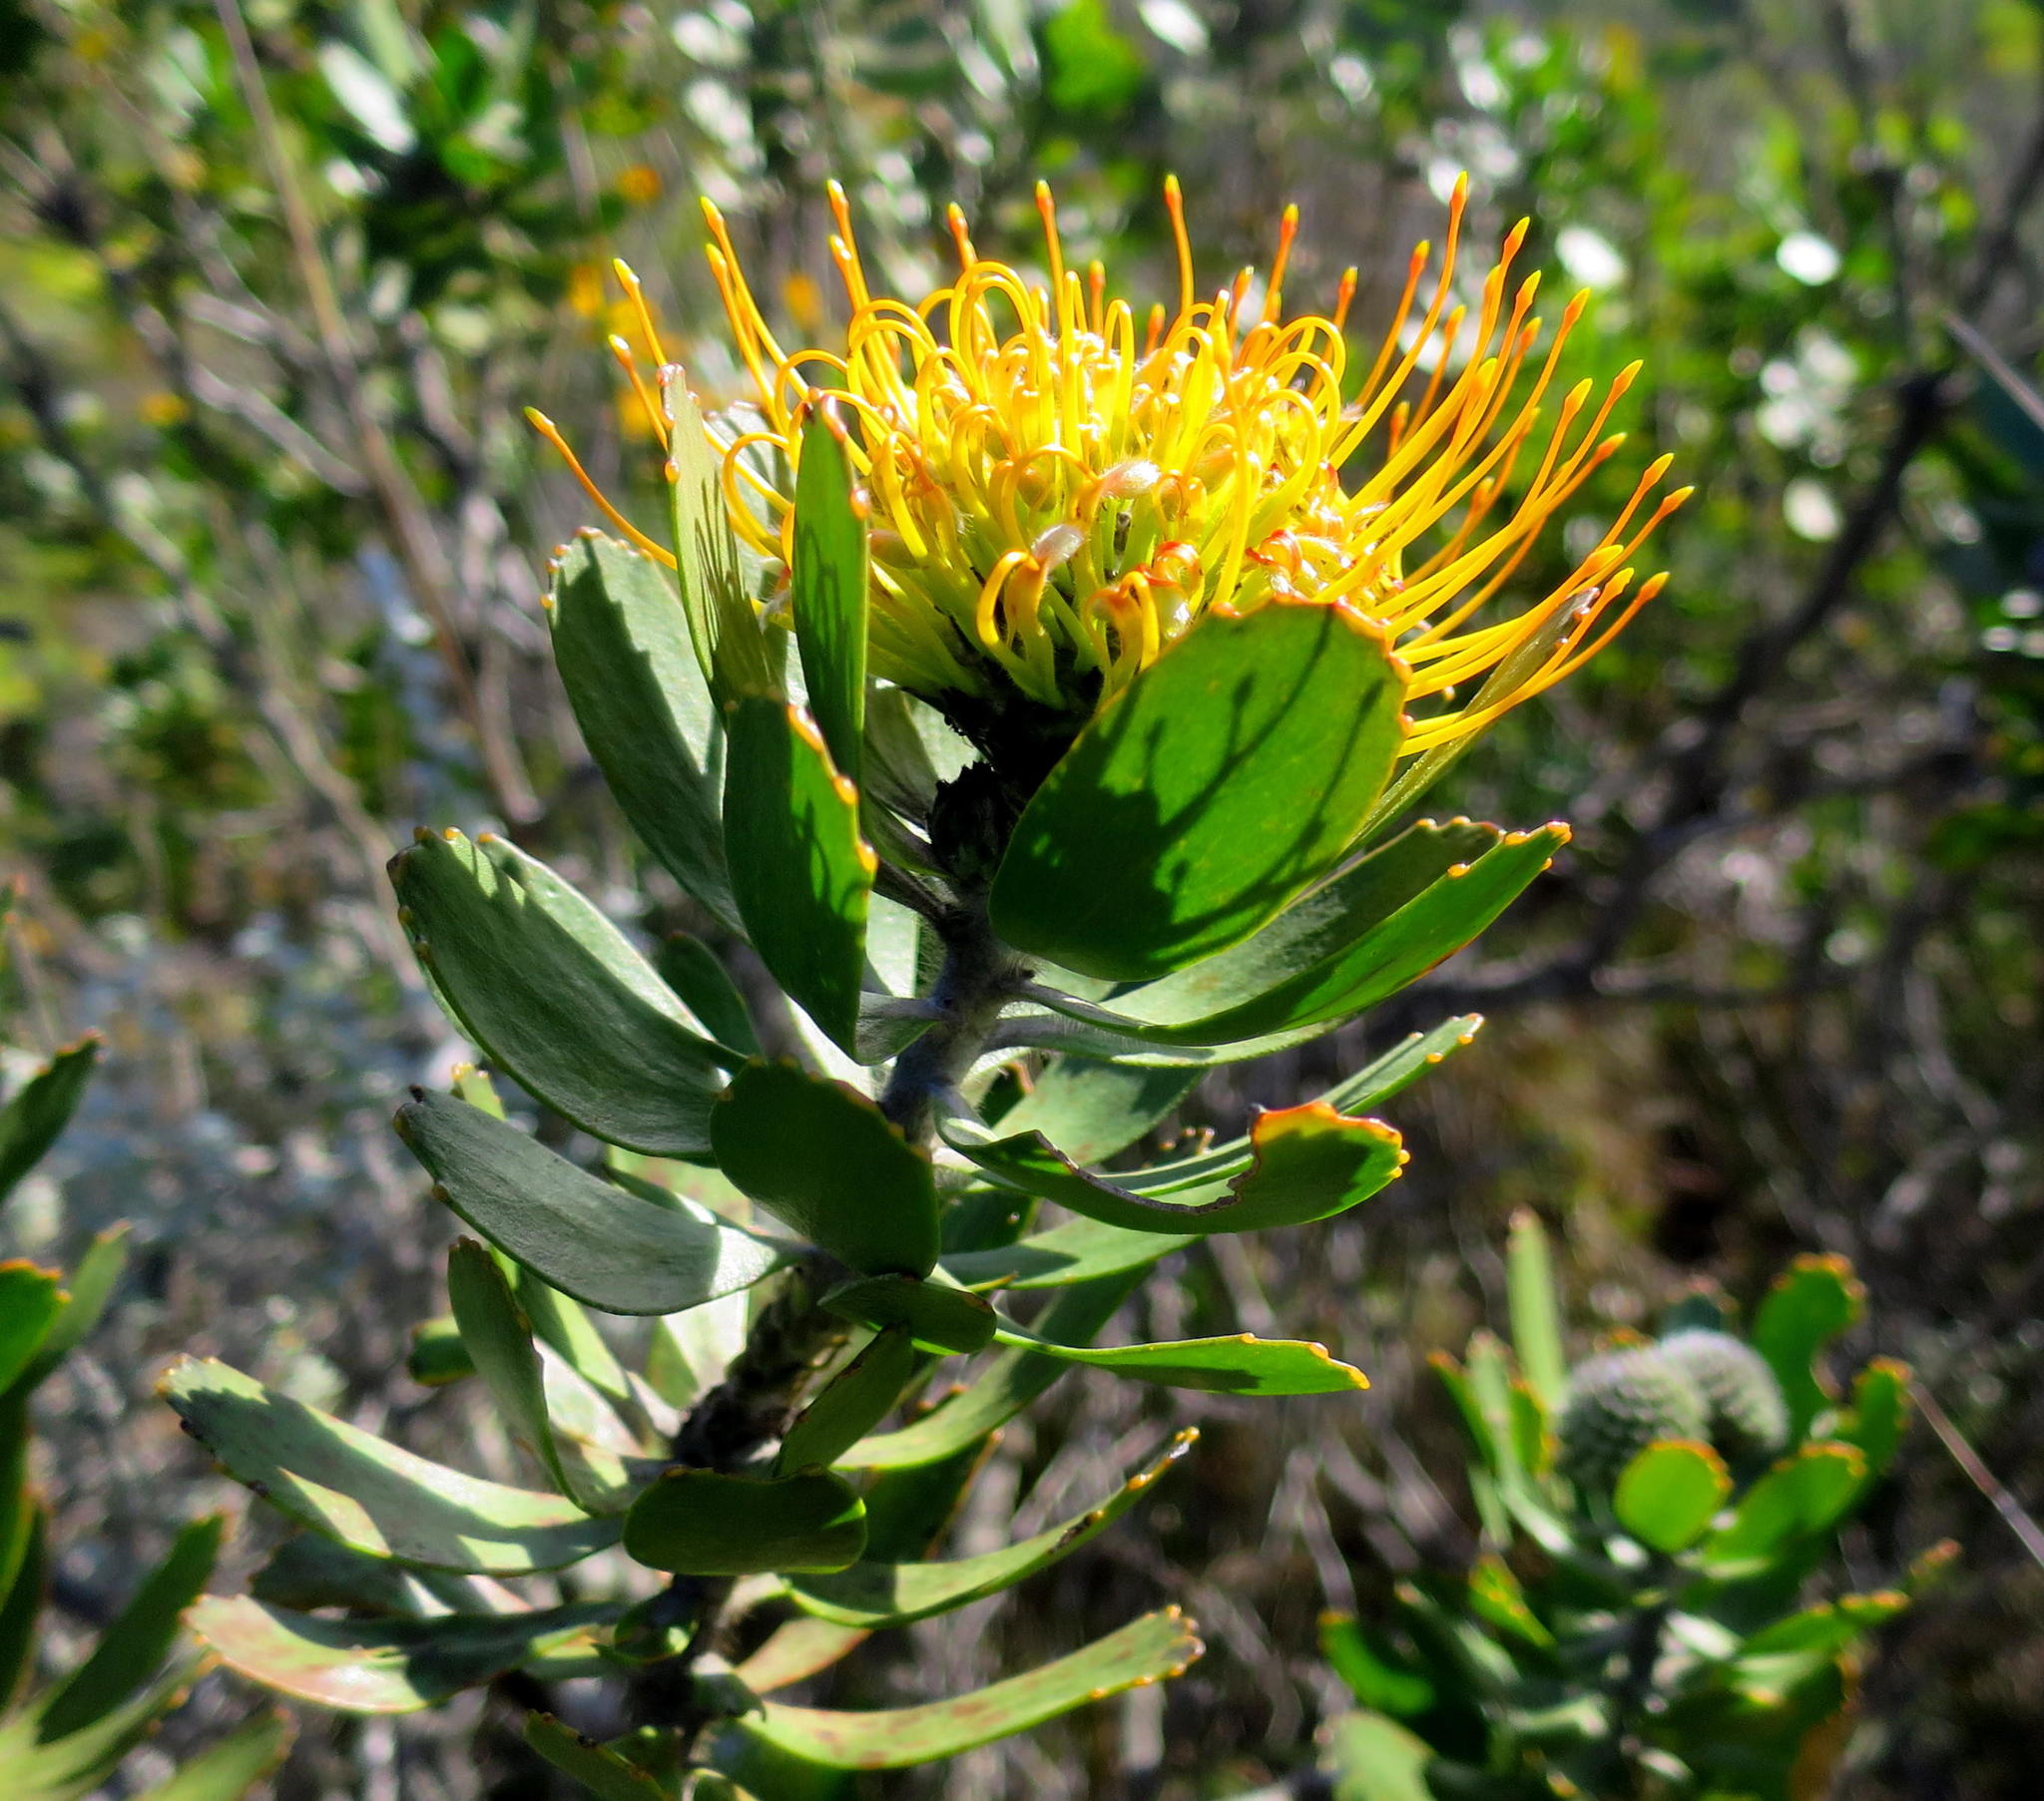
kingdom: Plantae
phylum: Tracheophyta
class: Magnoliopsida
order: Proteales
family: Proteaceae
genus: Leucospermum
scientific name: Leucospermum praecox
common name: Mossel bay pincushion
